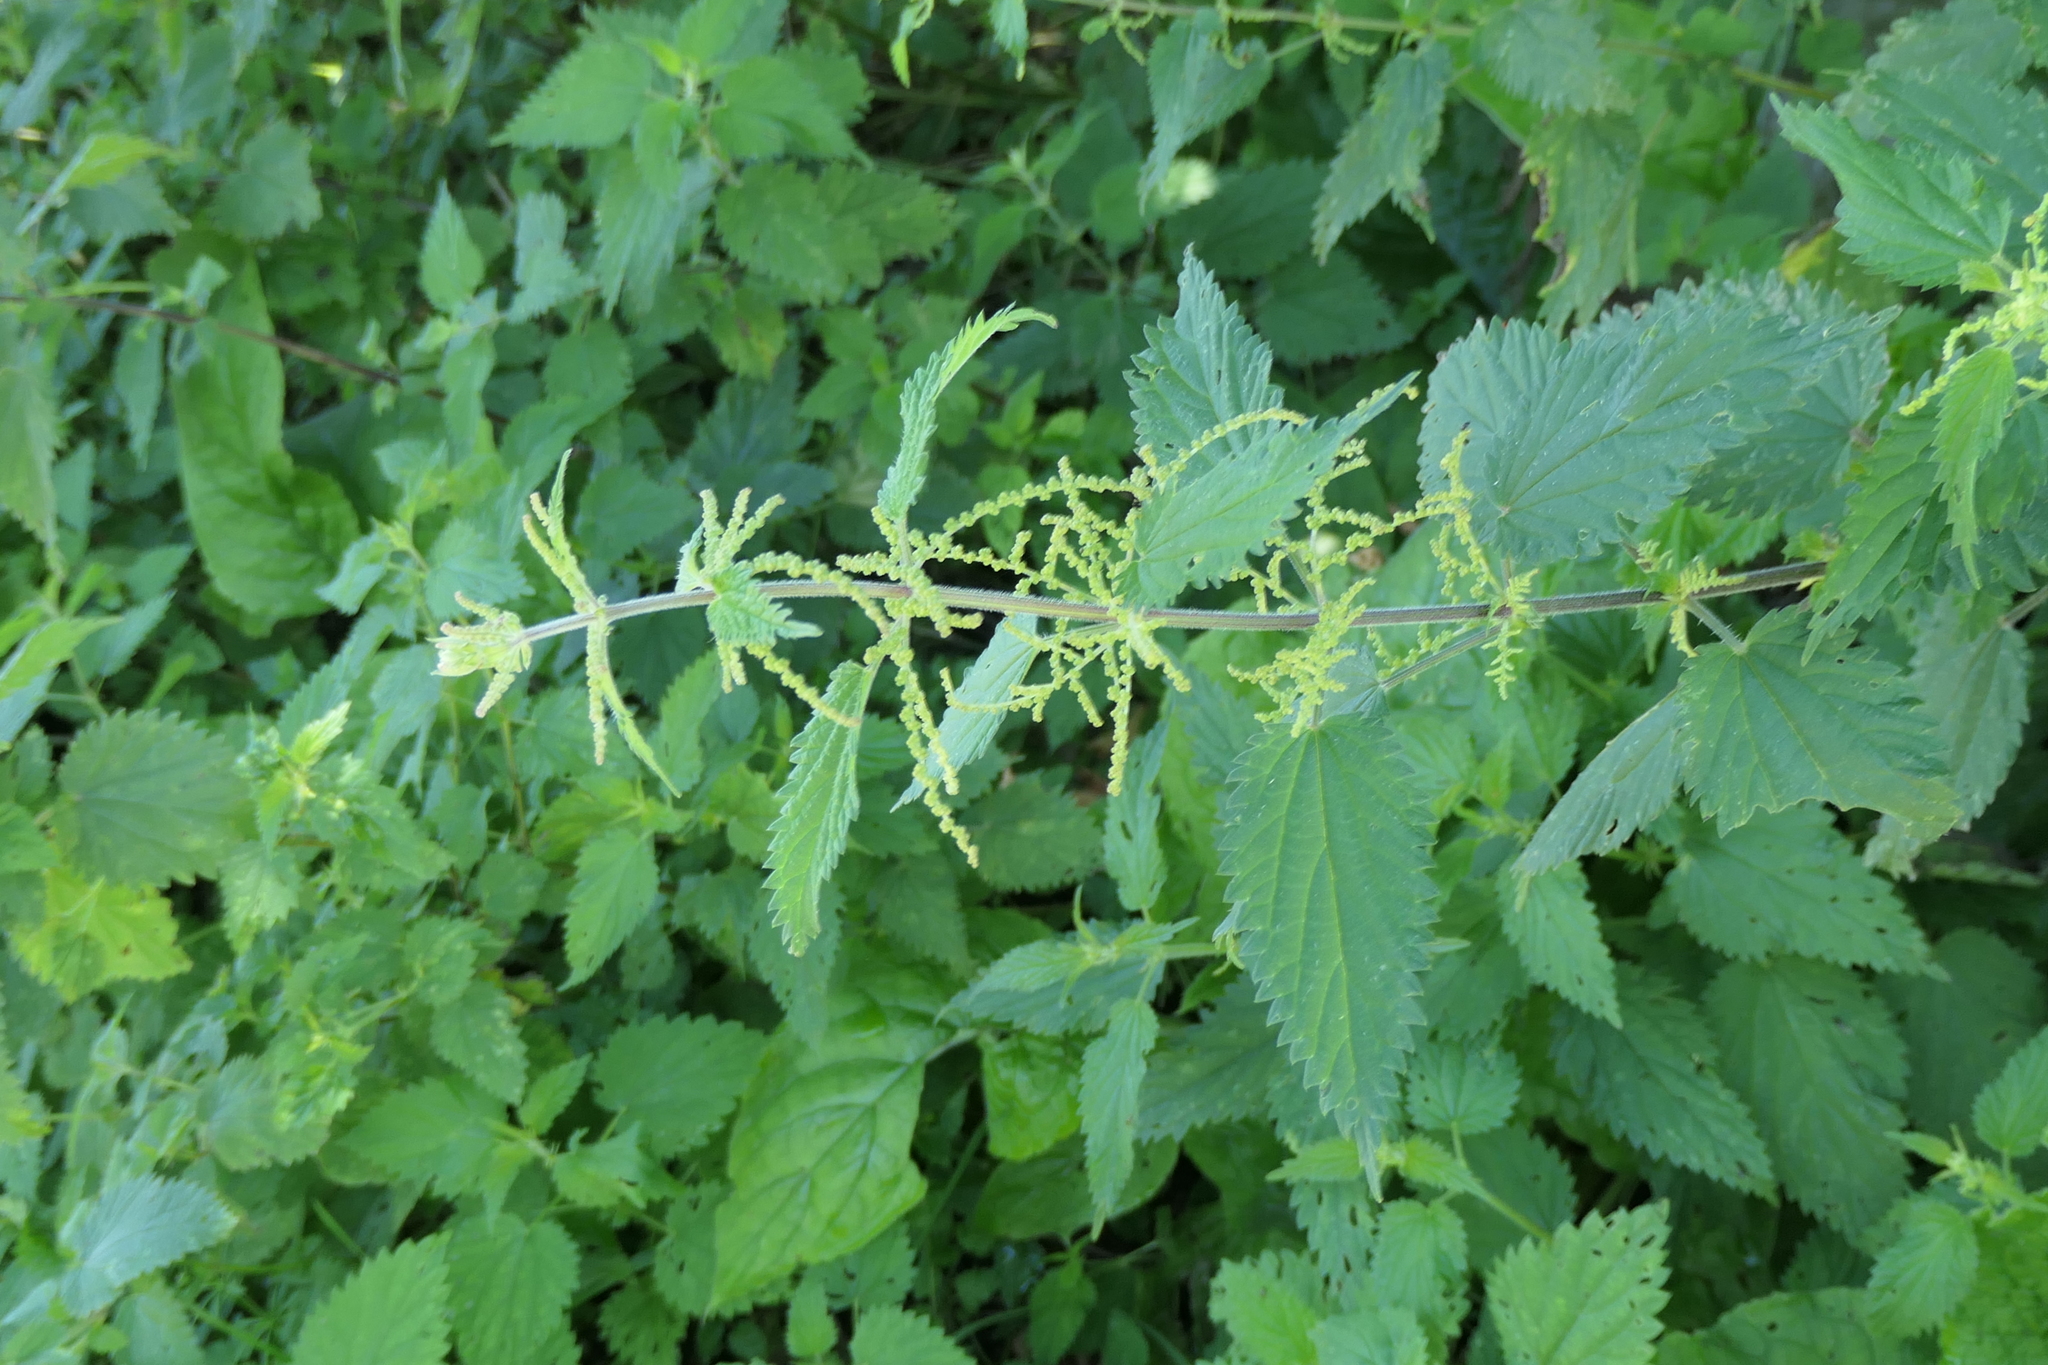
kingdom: Plantae
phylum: Tracheophyta
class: Magnoliopsida
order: Rosales
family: Urticaceae
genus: Urtica
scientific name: Urtica dioica
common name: Common nettle
